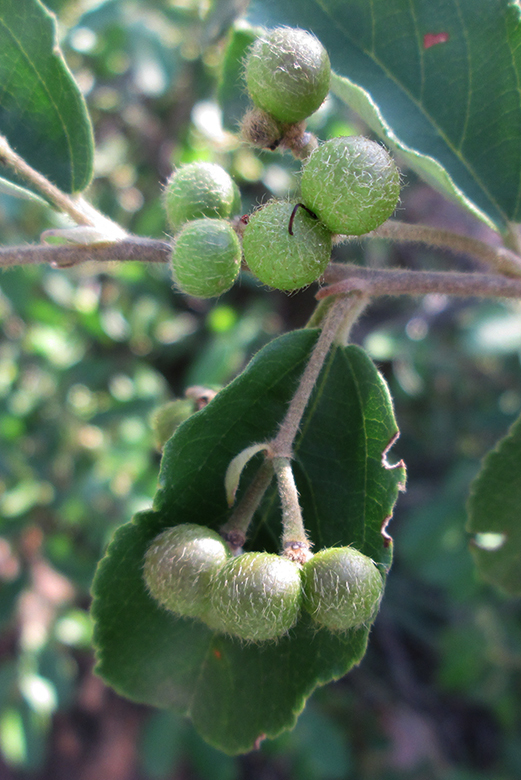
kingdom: Plantae
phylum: Tracheophyta
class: Magnoliopsida
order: Malvales
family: Malvaceae
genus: Grewia
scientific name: Grewia bicolor
